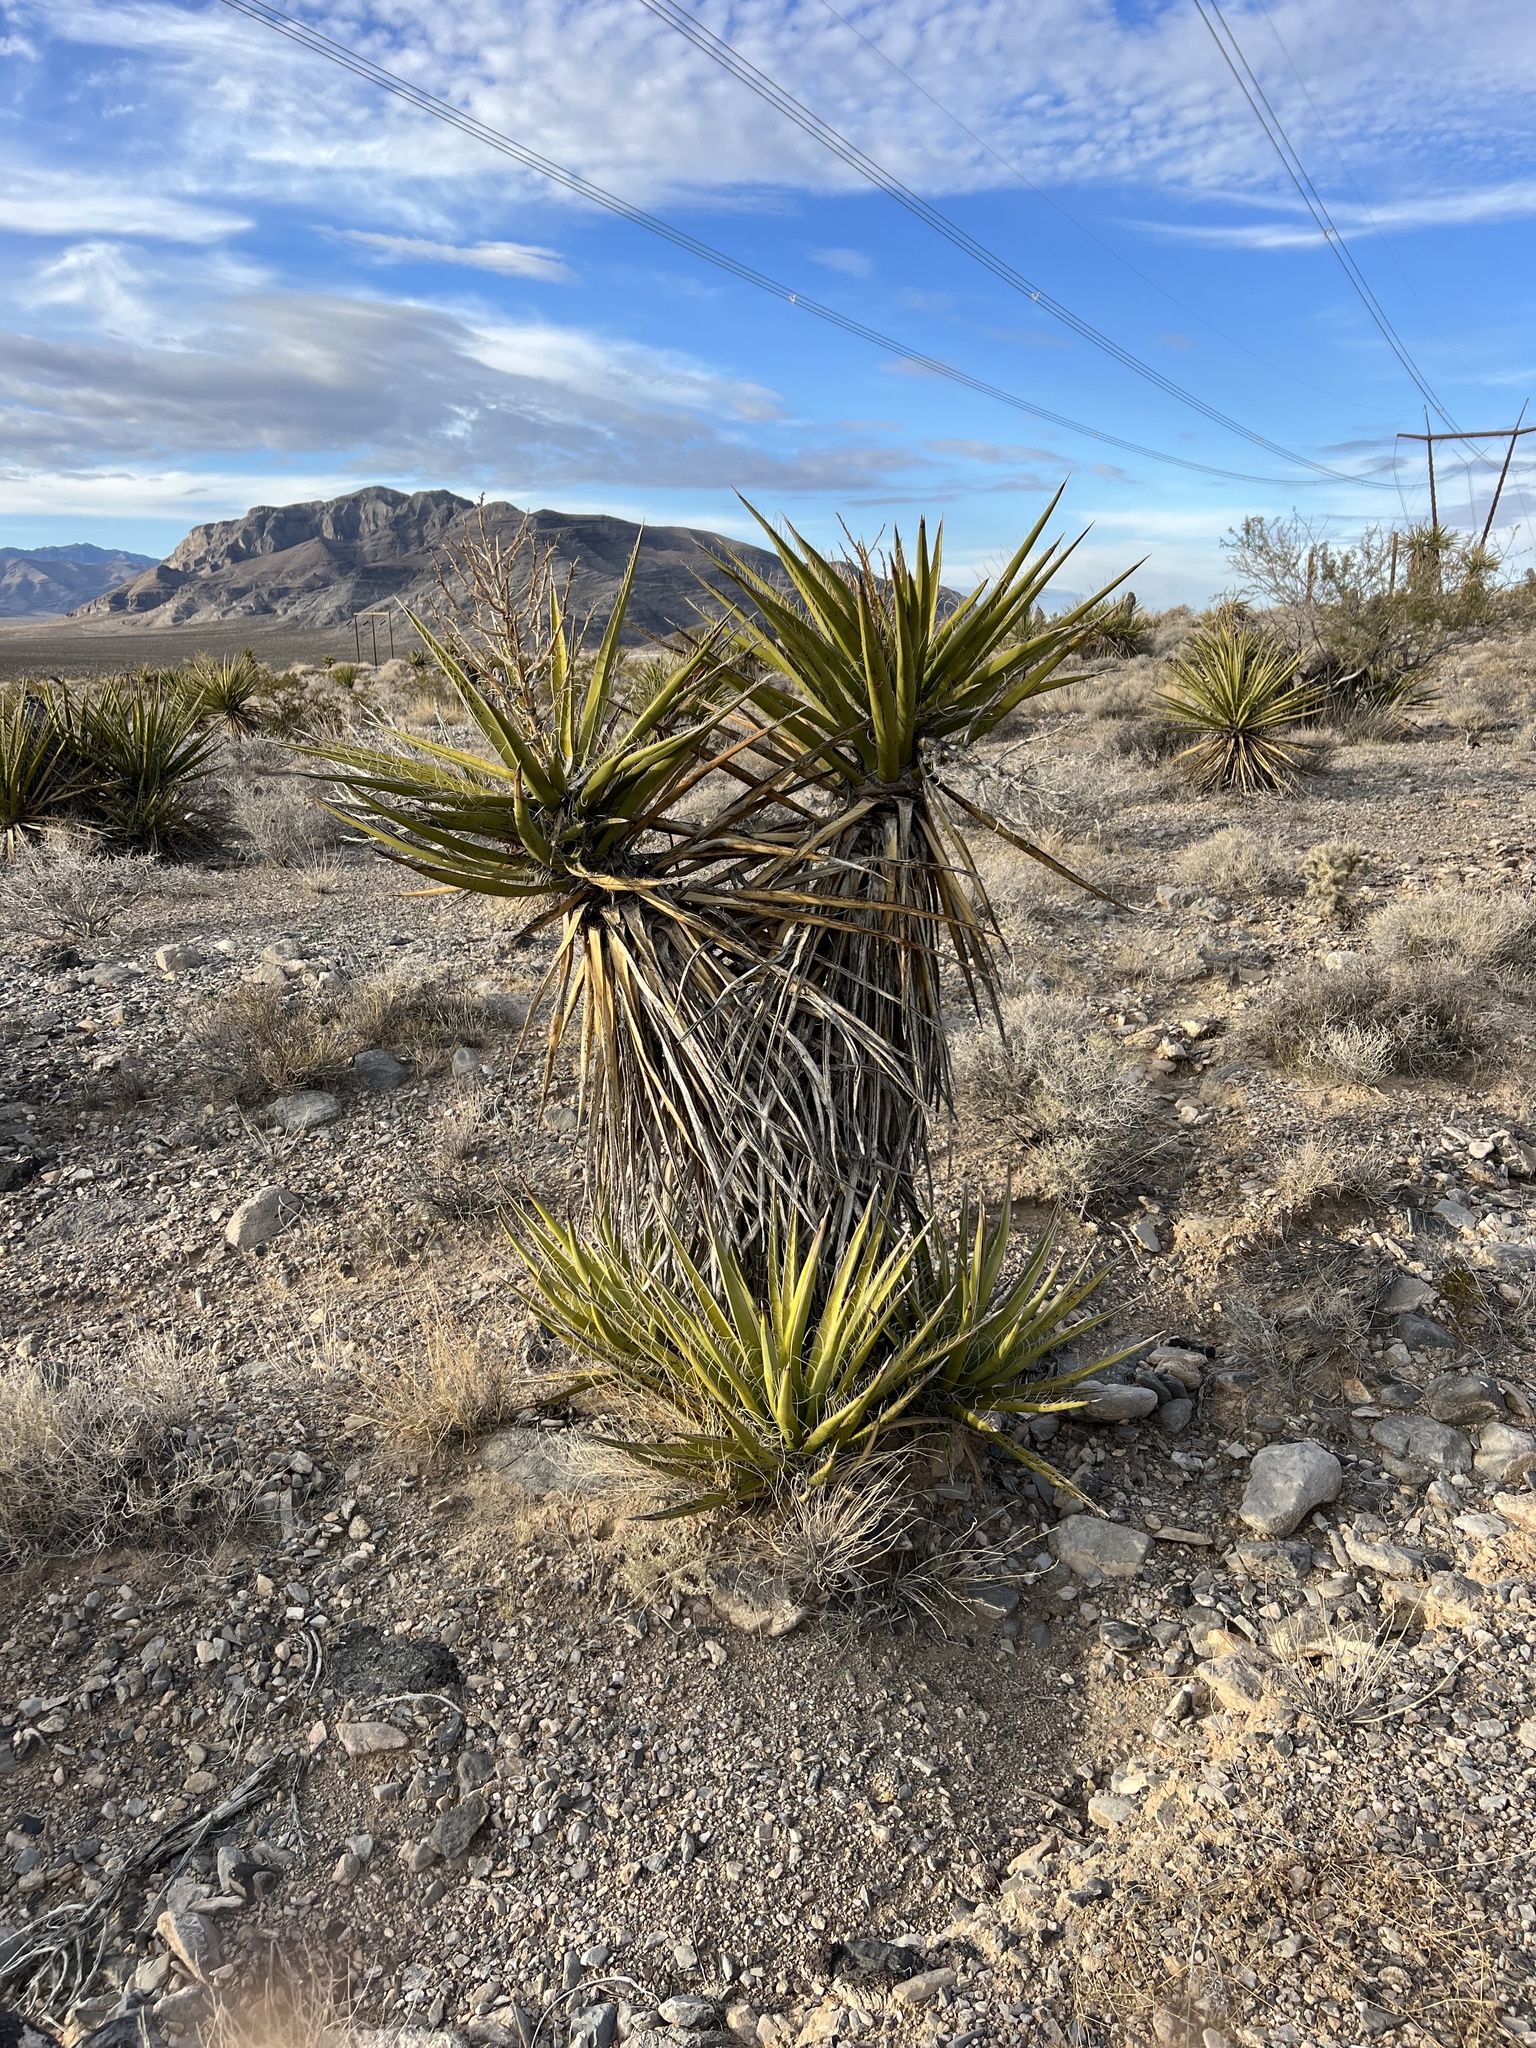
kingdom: Plantae
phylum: Tracheophyta
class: Liliopsida
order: Asparagales
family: Asparagaceae
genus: Yucca
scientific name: Yucca schidigera
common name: Mojave yucca
